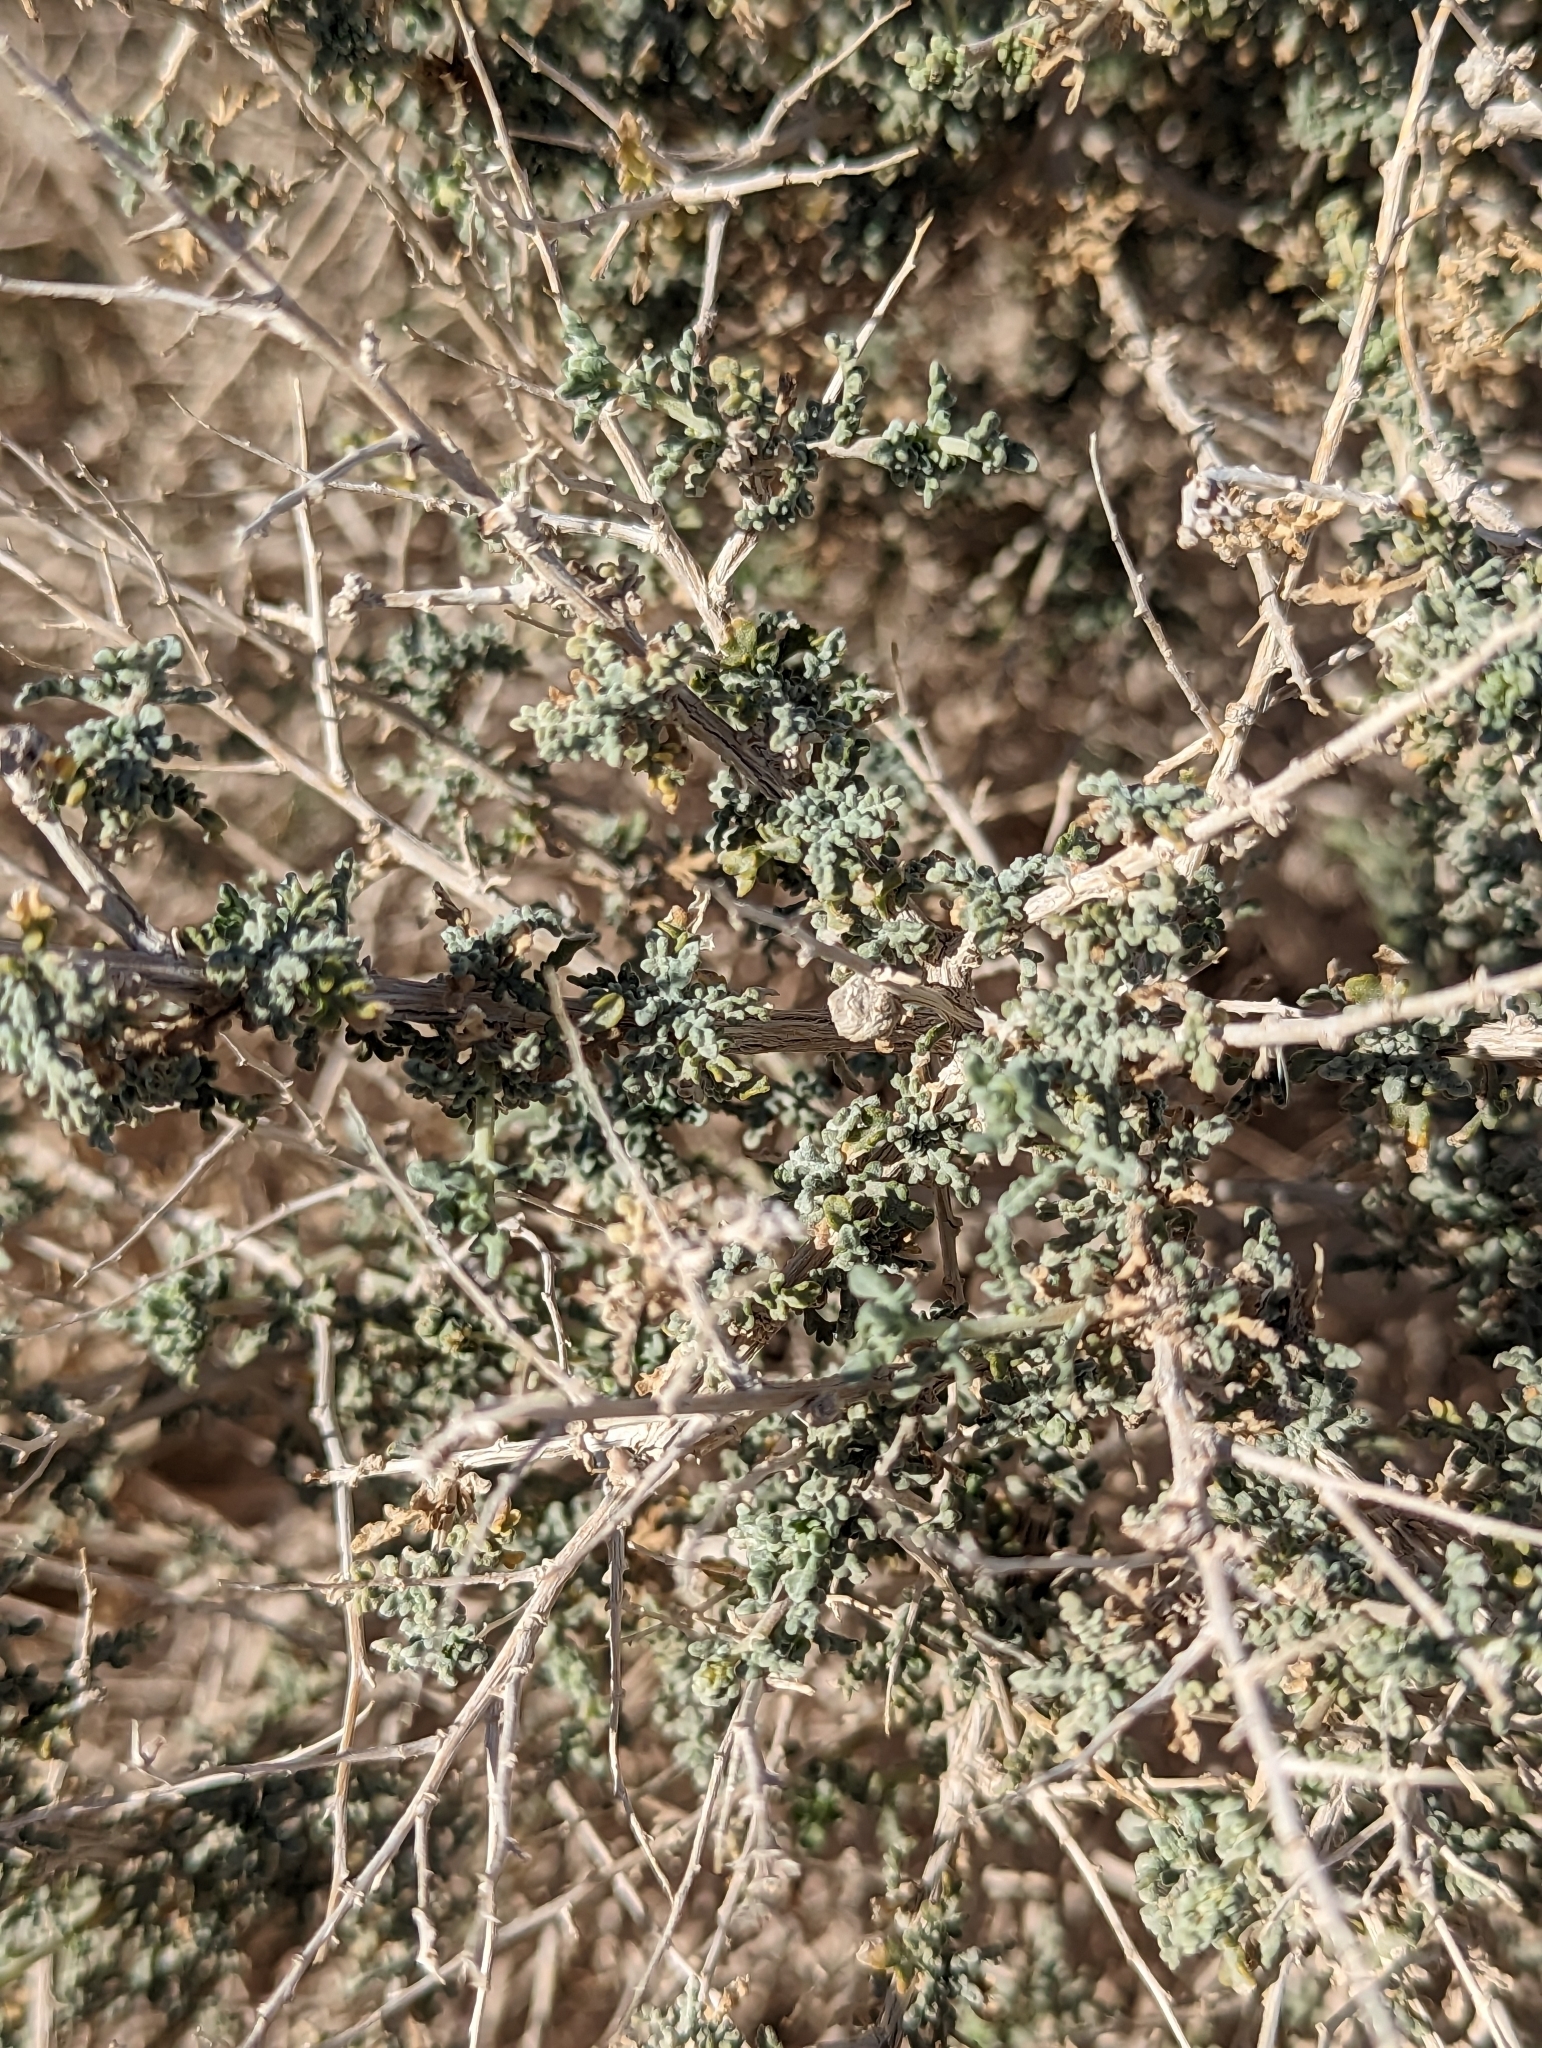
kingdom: Plantae
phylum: Tracheophyta
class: Magnoliopsida
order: Asterales
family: Asteraceae
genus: Ambrosia
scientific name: Ambrosia dumosa
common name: Bur-sage
